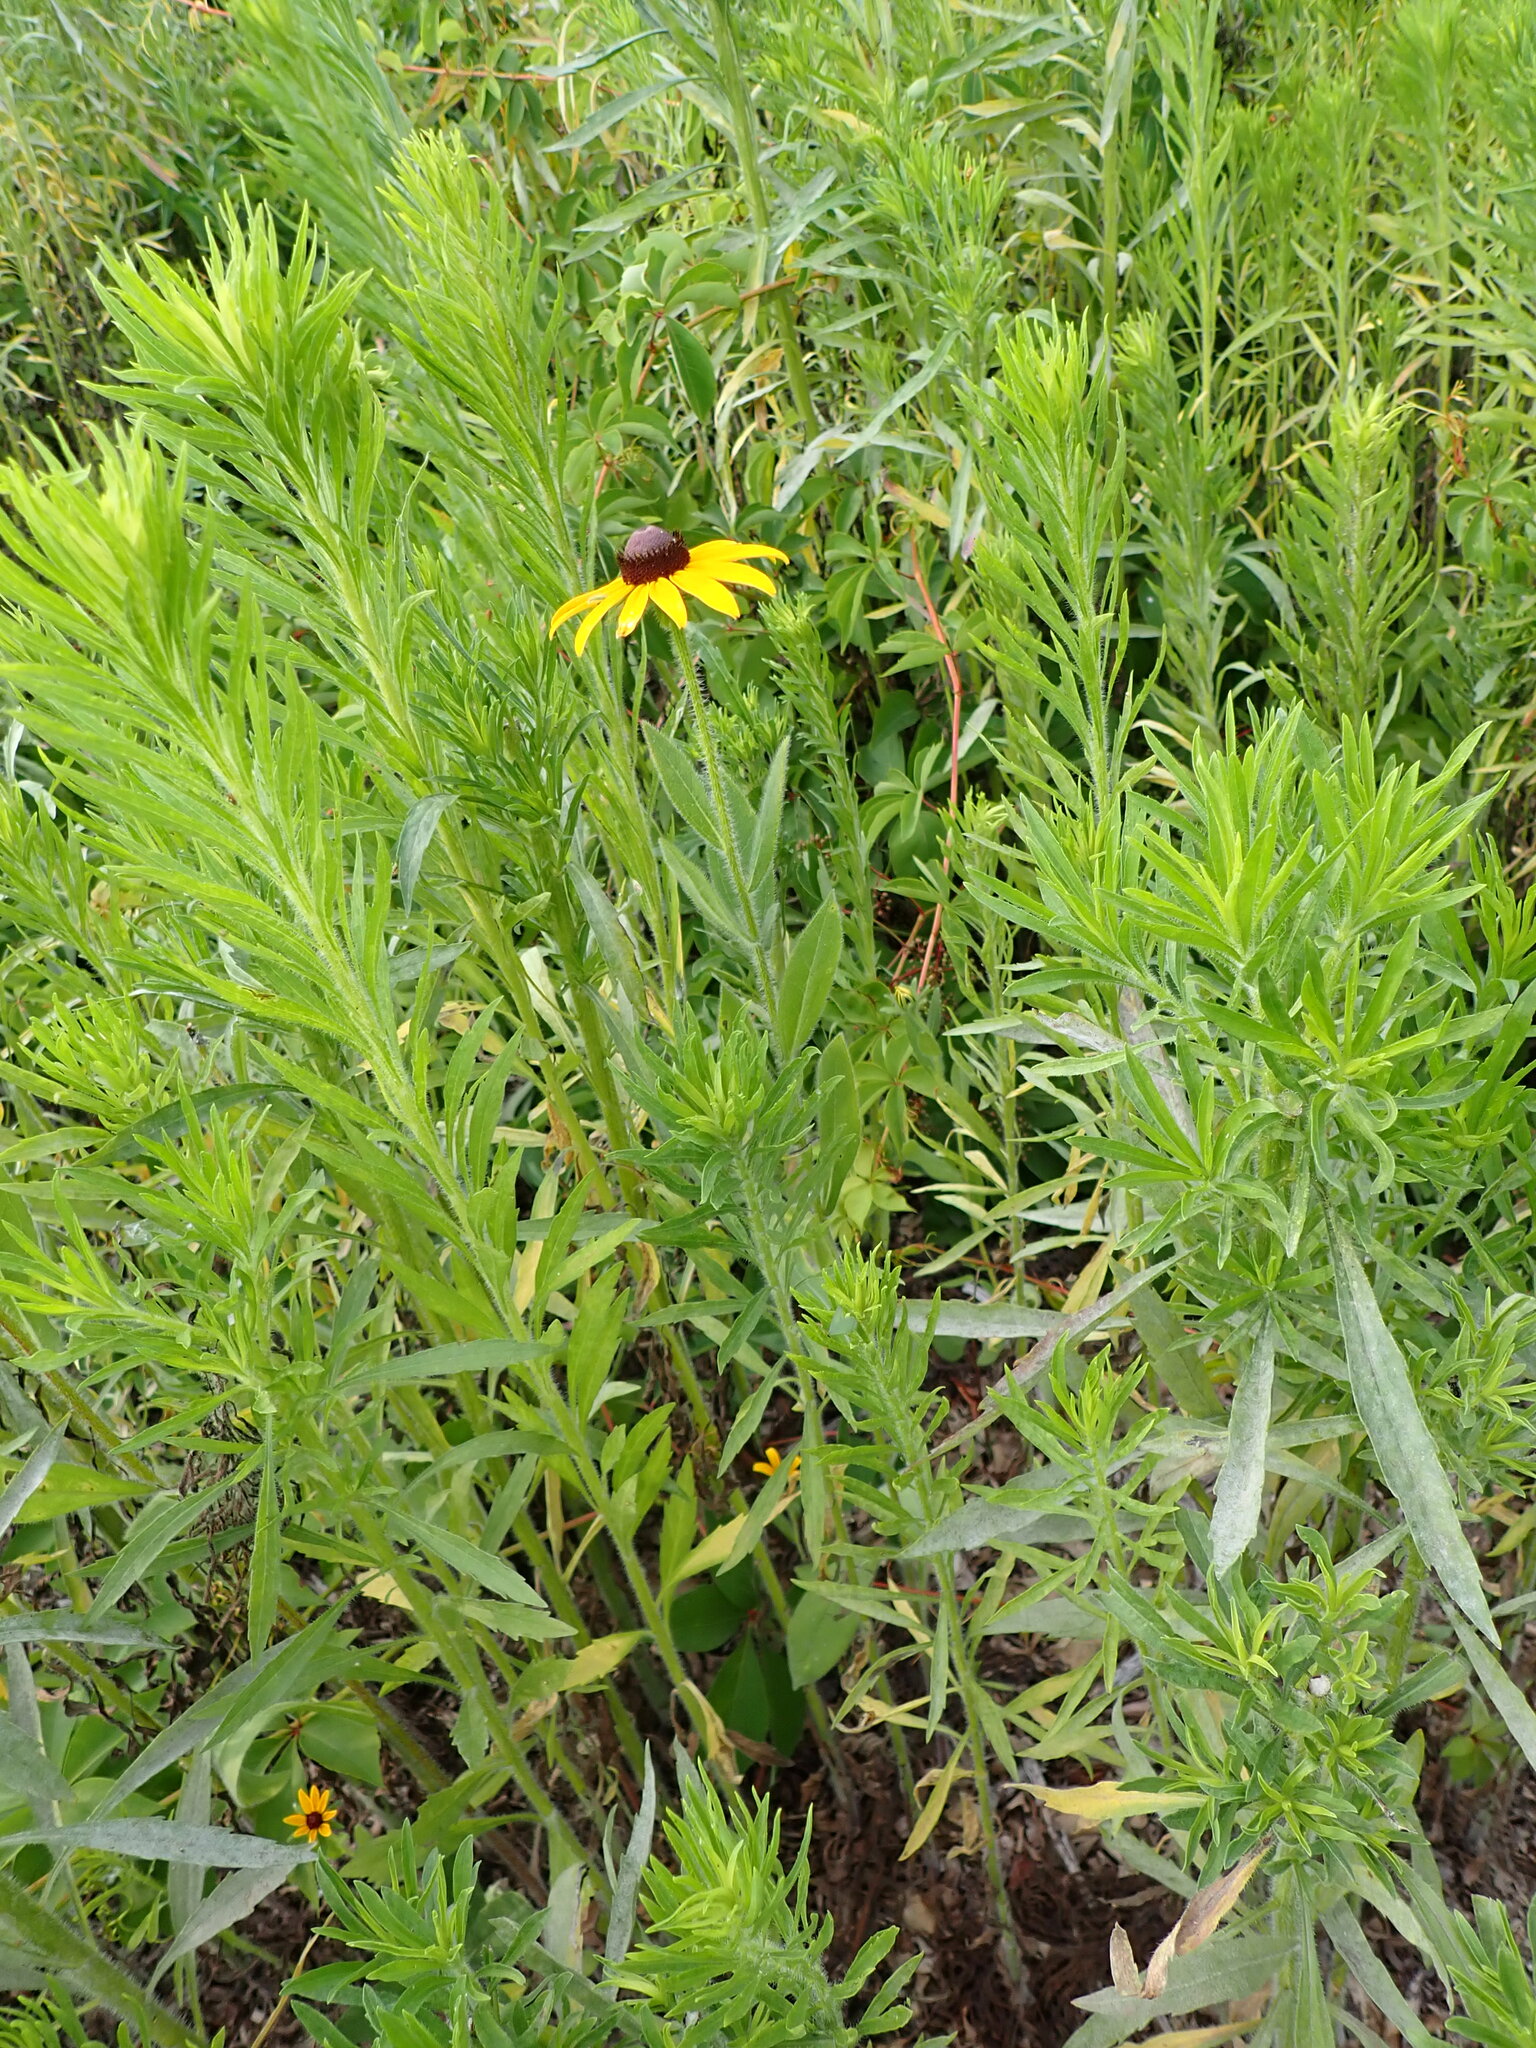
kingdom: Plantae
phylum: Tracheophyta
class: Magnoliopsida
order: Asterales
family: Asteraceae
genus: Rudbeckia
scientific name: Rudbeckia hirta
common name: Black-eyed-susan
